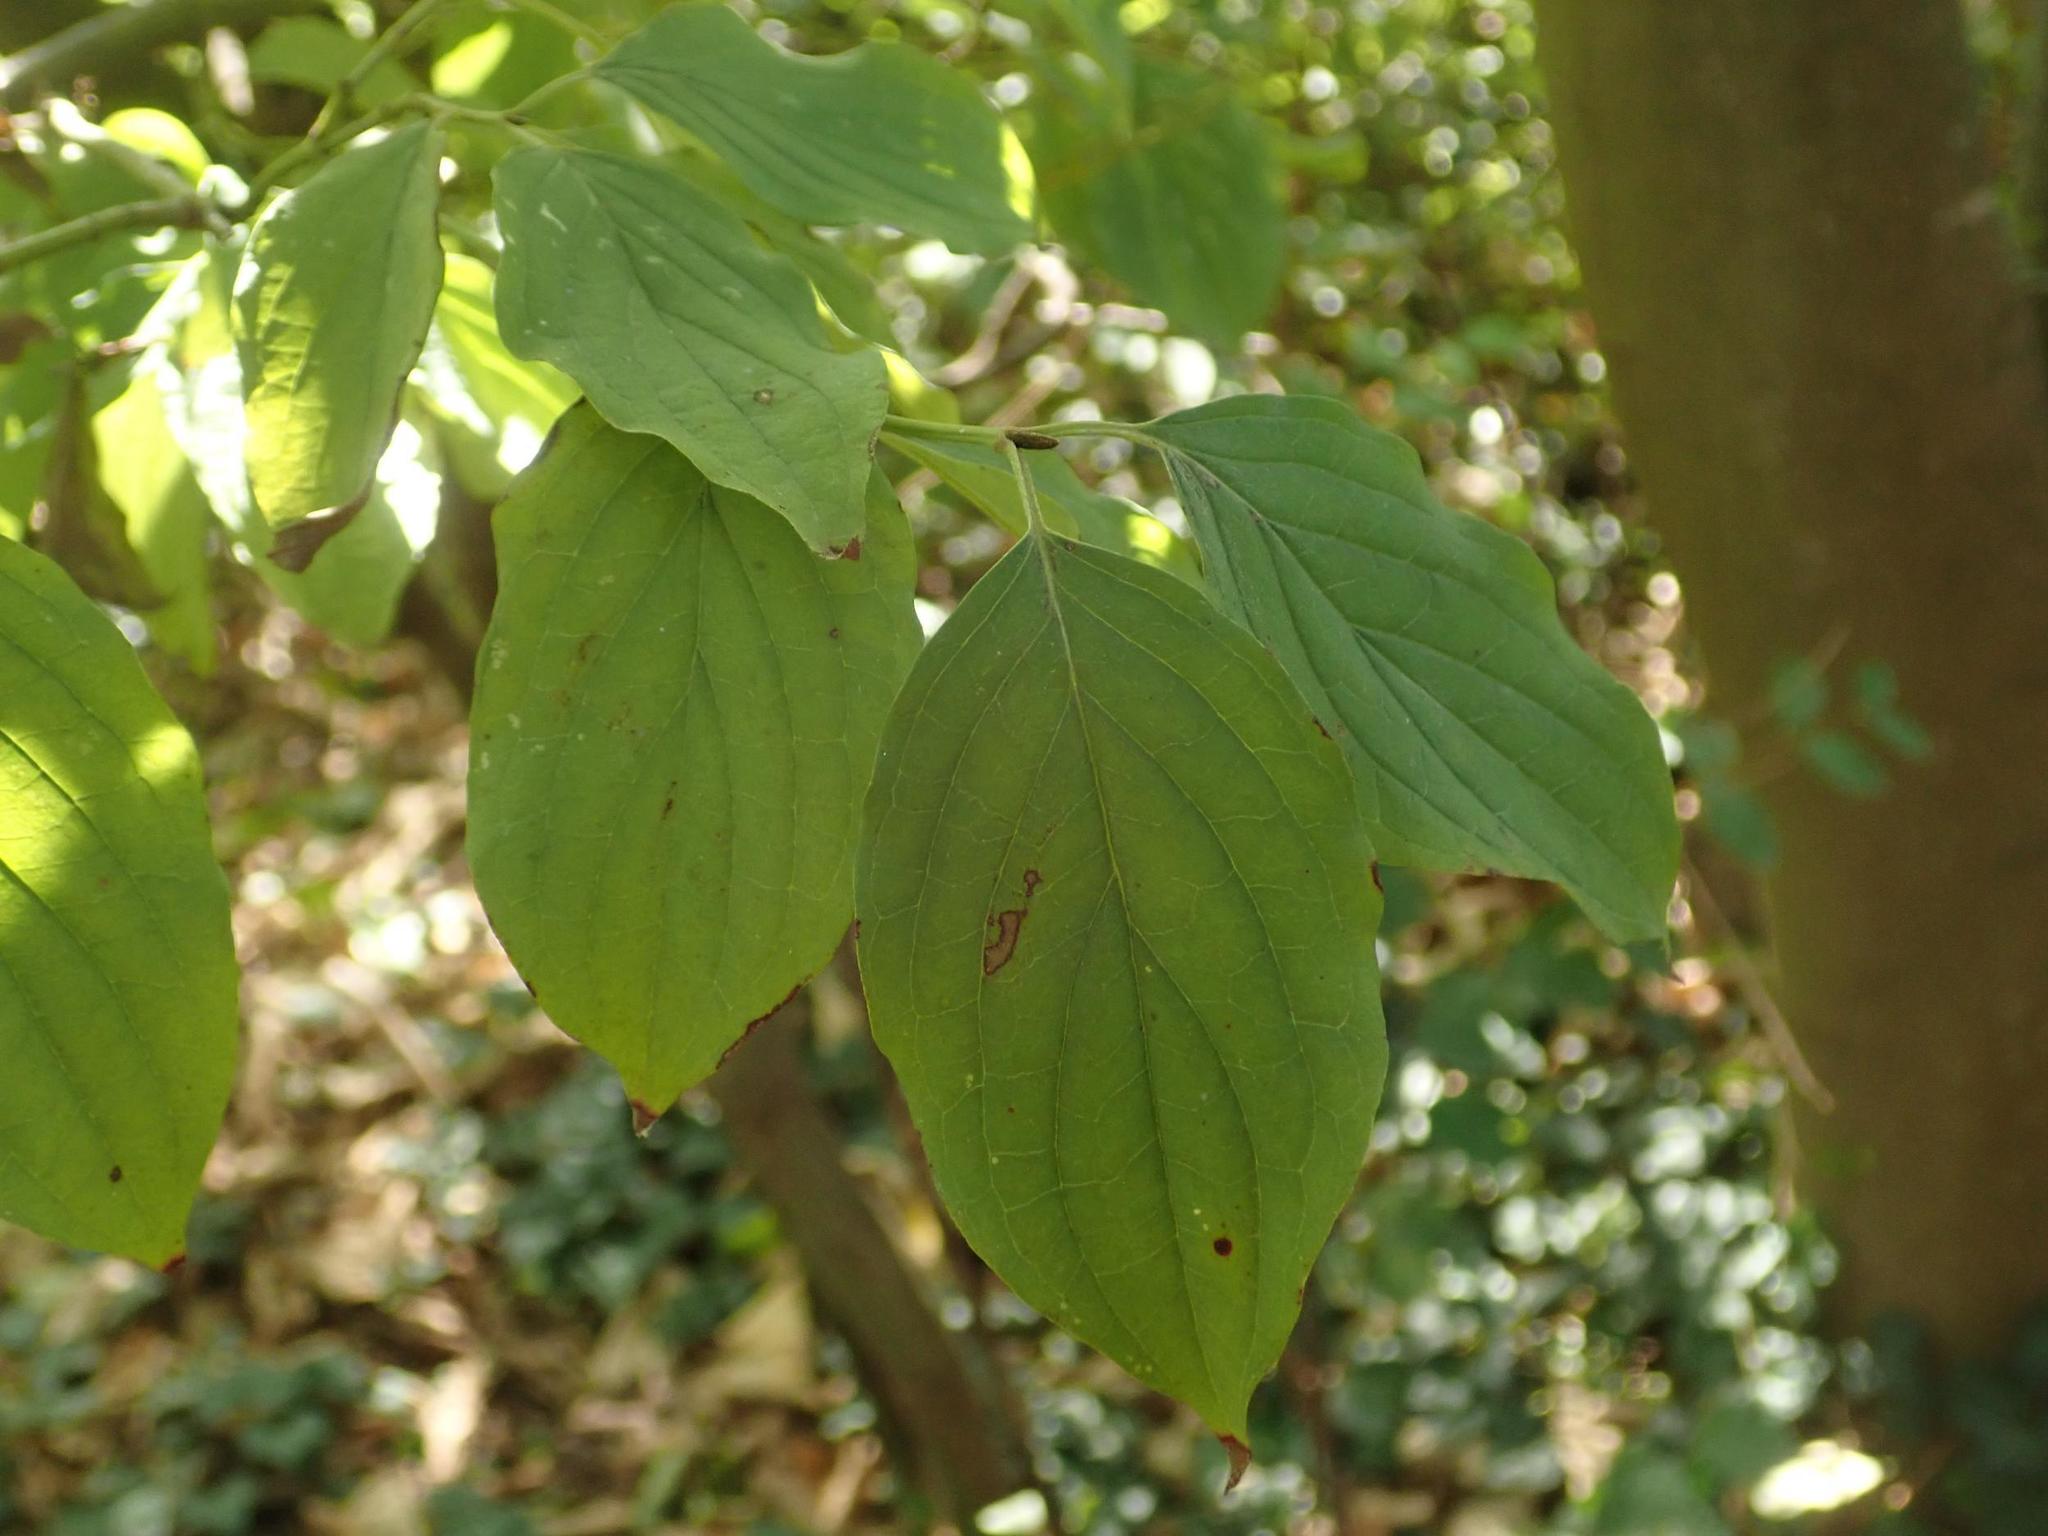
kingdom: Plantae
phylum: Tracheophyta
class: Magnoliopsida
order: Cornales
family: Cornaceae
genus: Cornus
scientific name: Cornus sanguinea
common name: Dogwood
